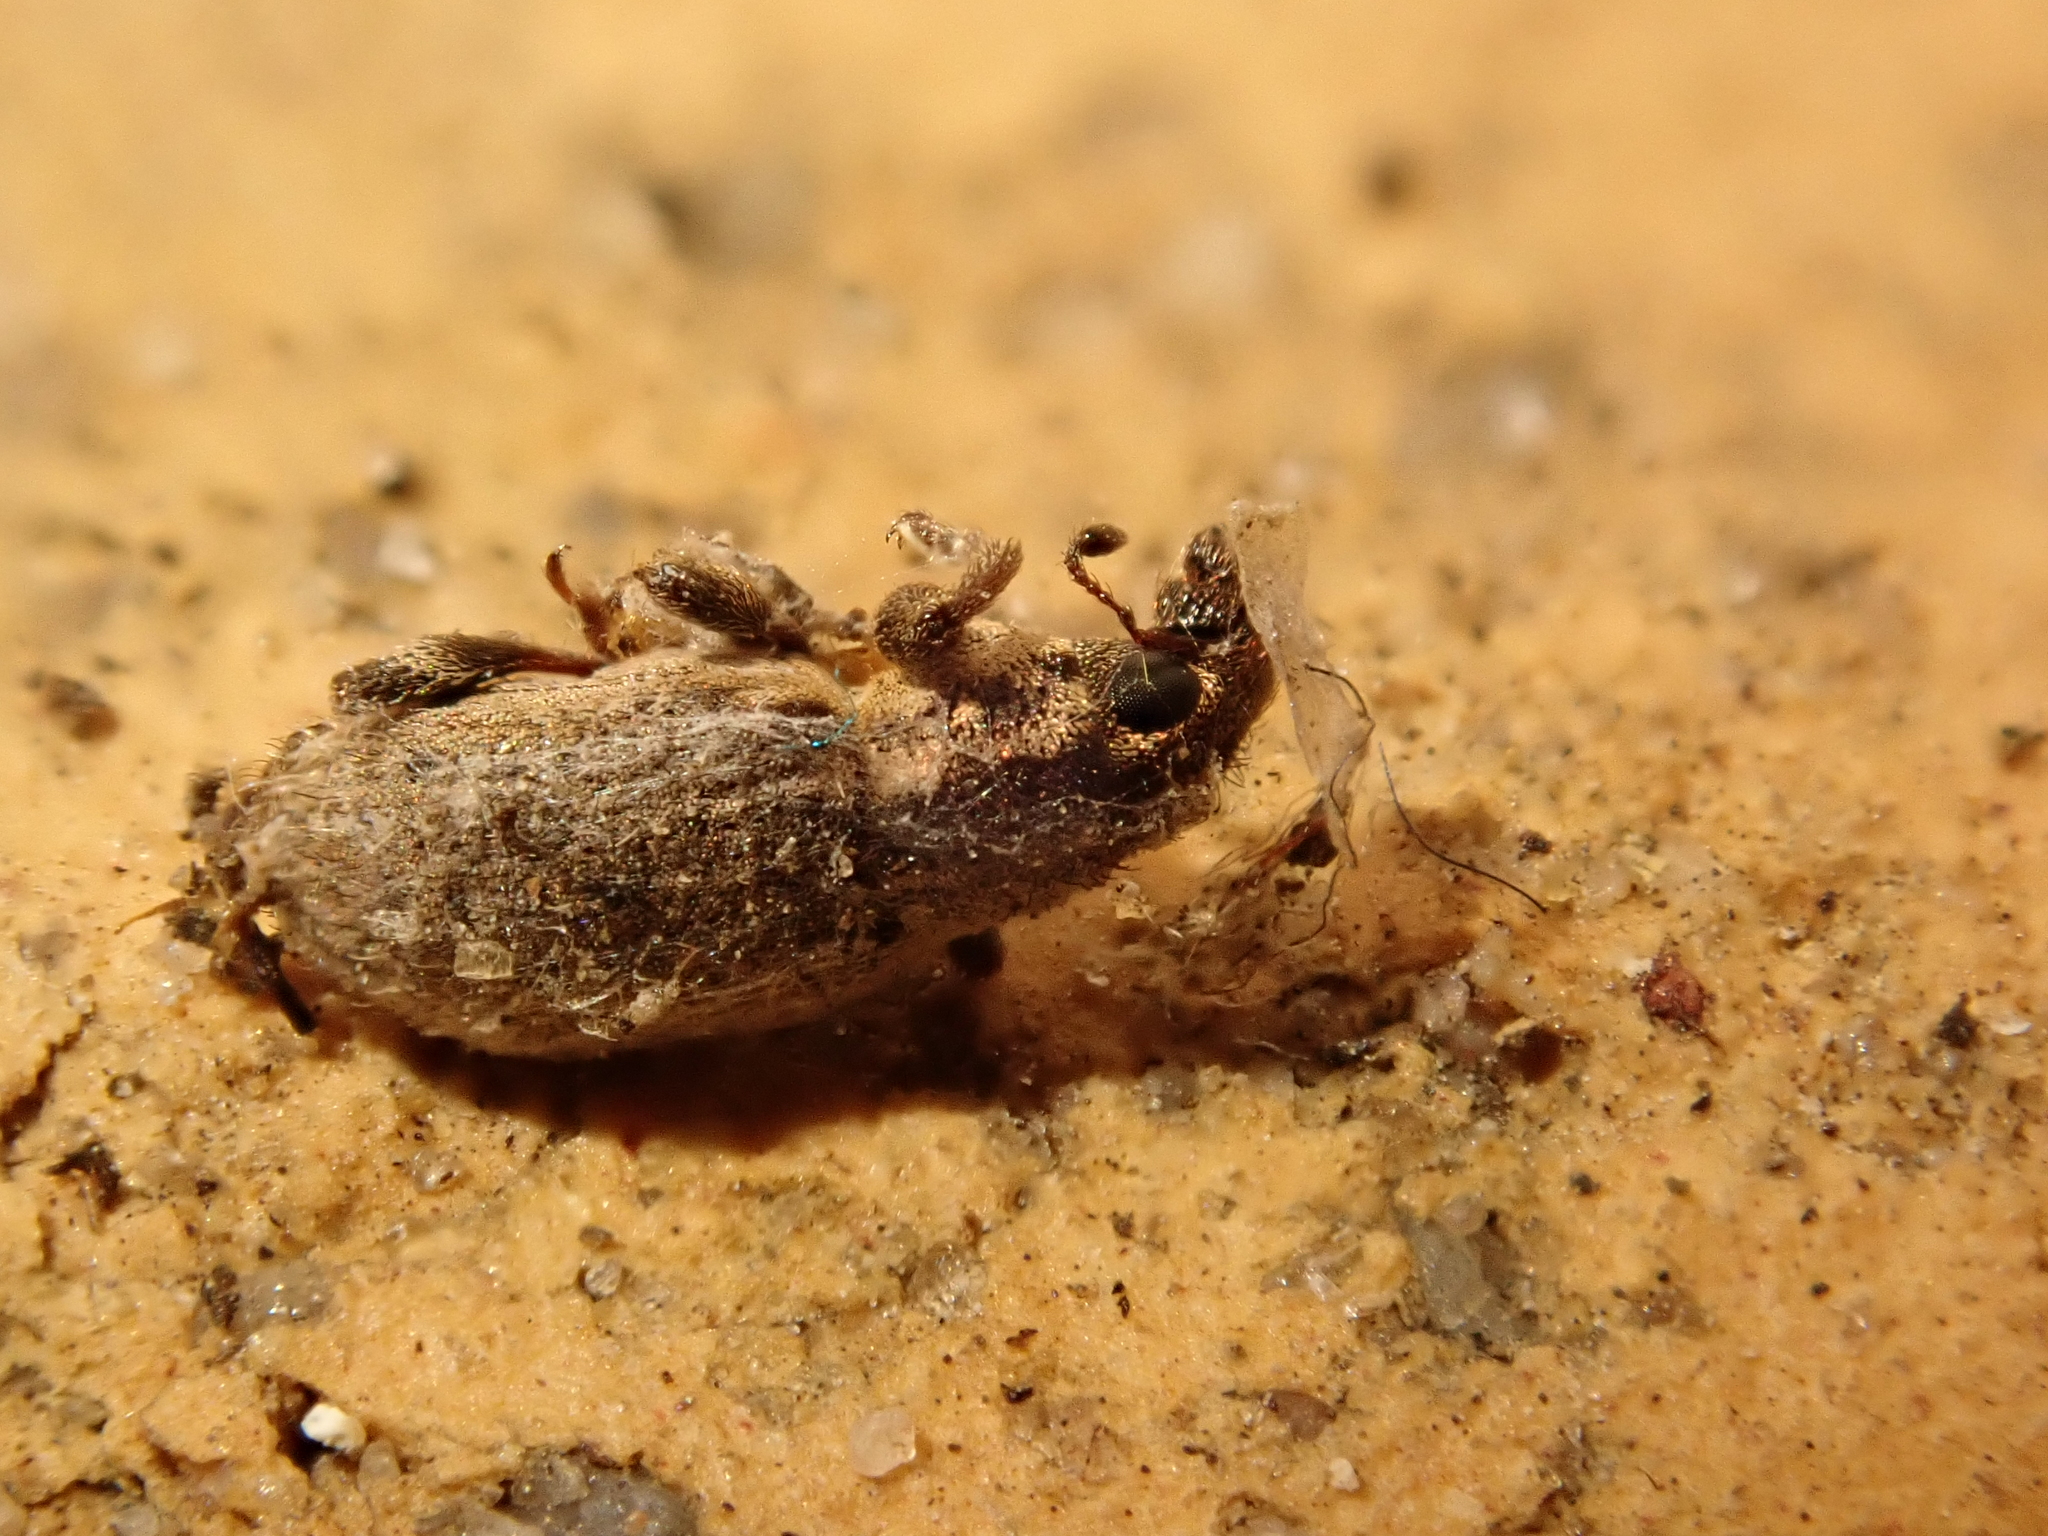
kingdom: Animalia
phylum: Arthropoda
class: Insecta
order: Coleoptera
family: Curculionidae
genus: Sitona
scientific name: Sitona hispidulus
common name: Clover weevil
